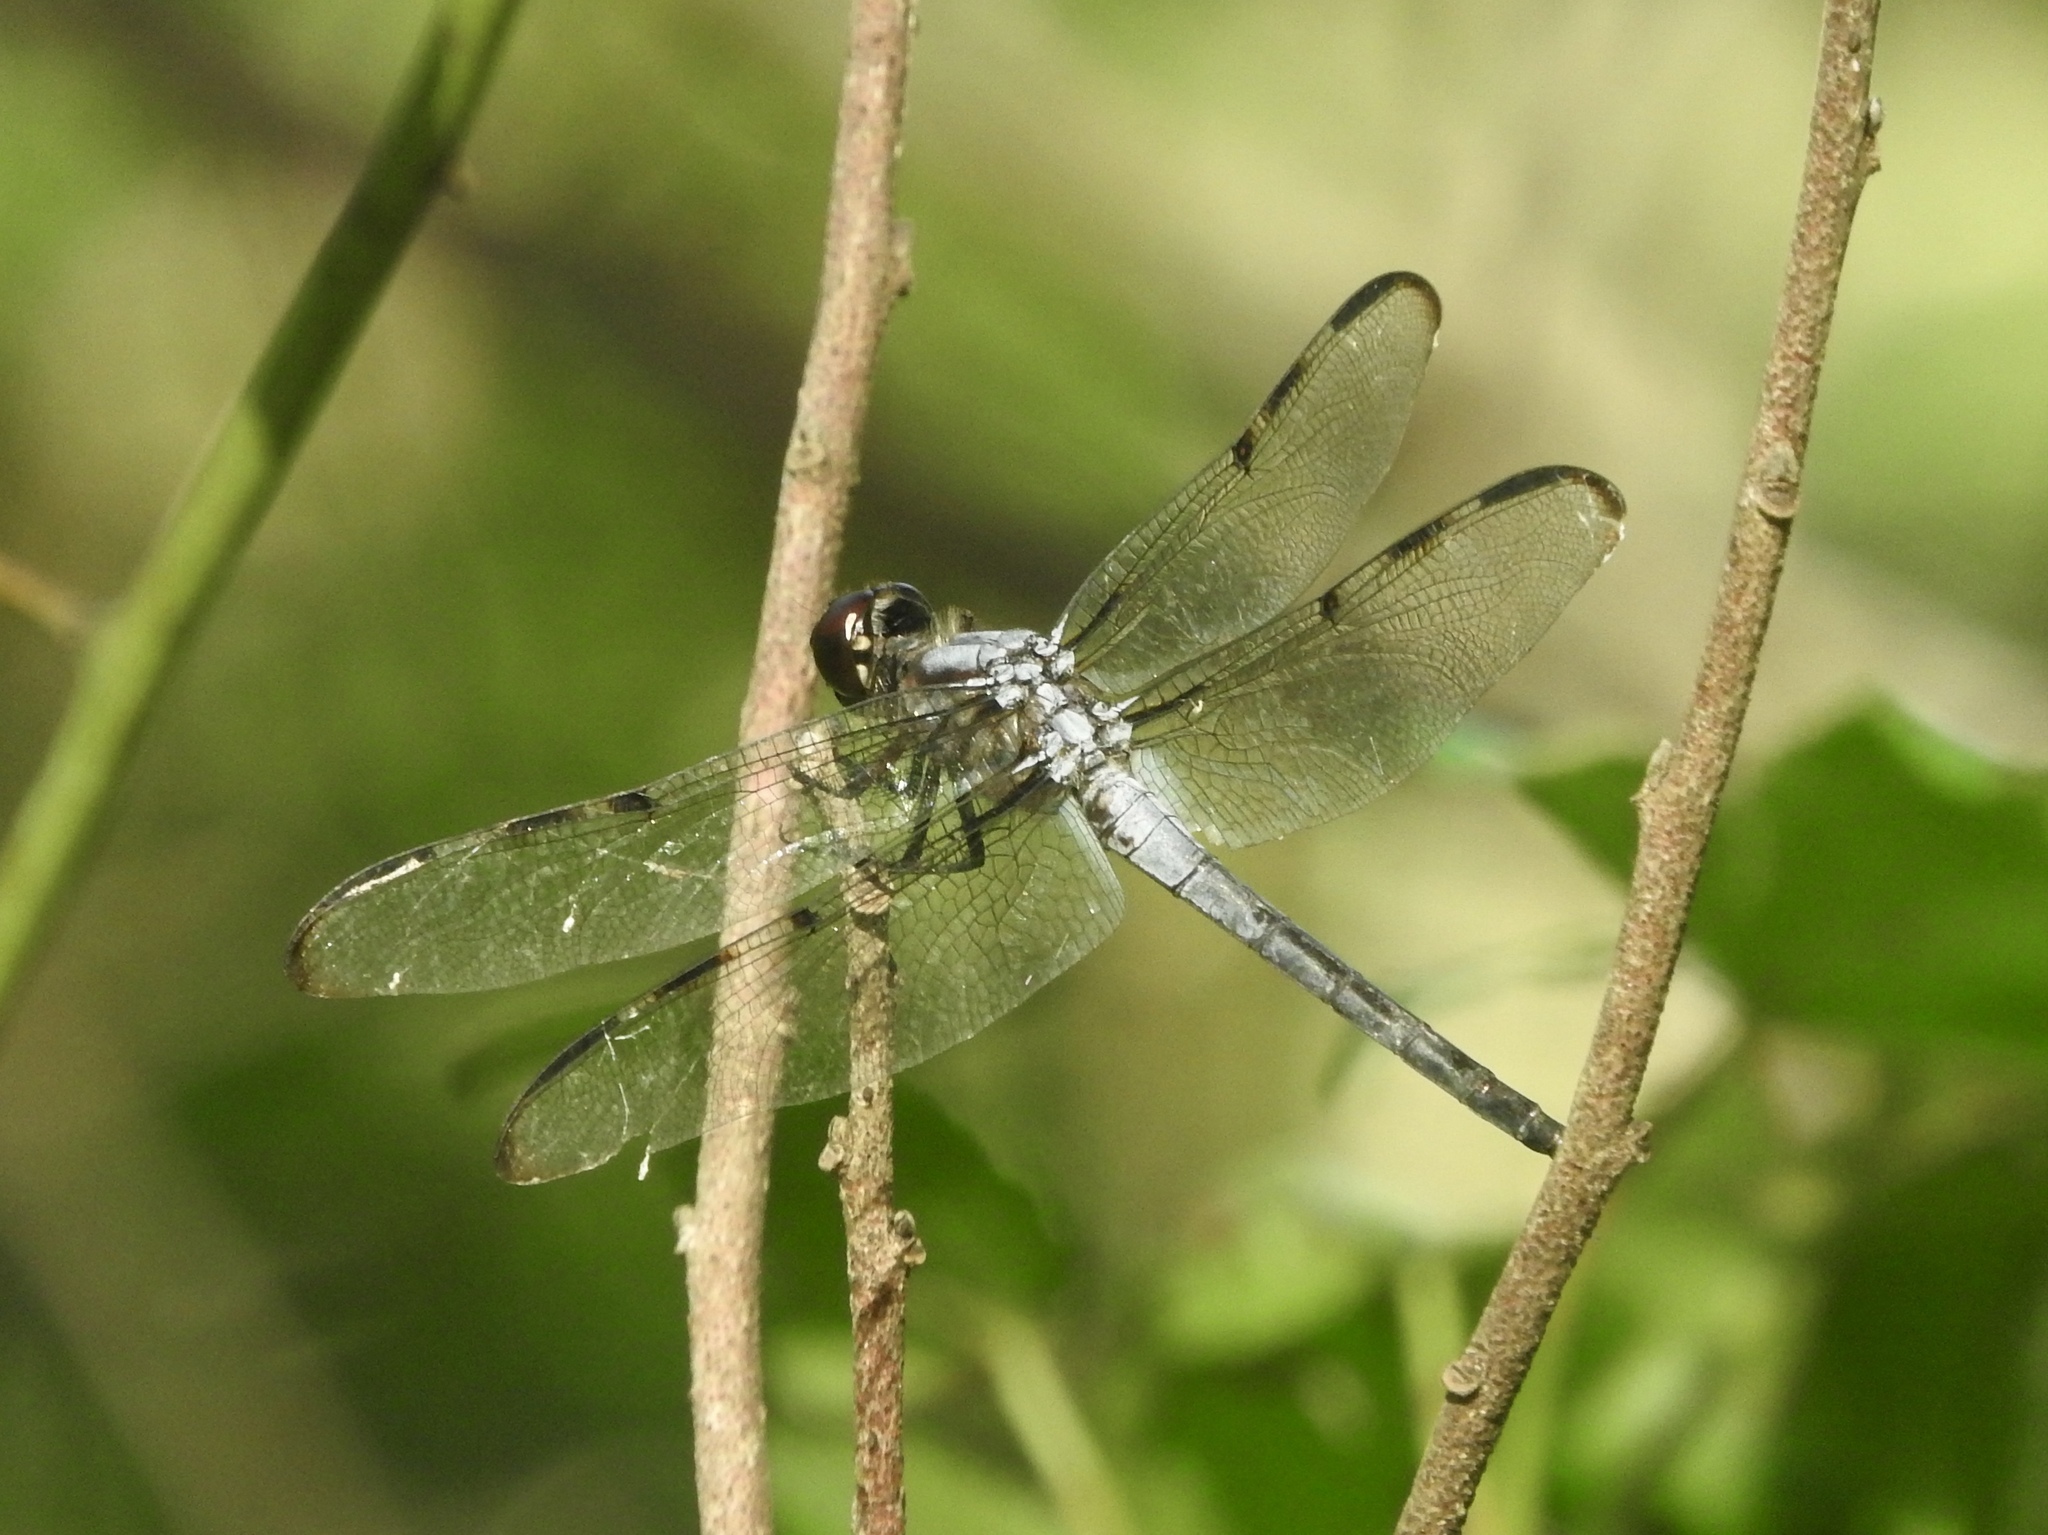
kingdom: Animalia
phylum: Arthropoda
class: Insecta
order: Odonata
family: Libellulidae
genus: Libellula
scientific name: Libellula axilena
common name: Bar-winged skimmer
